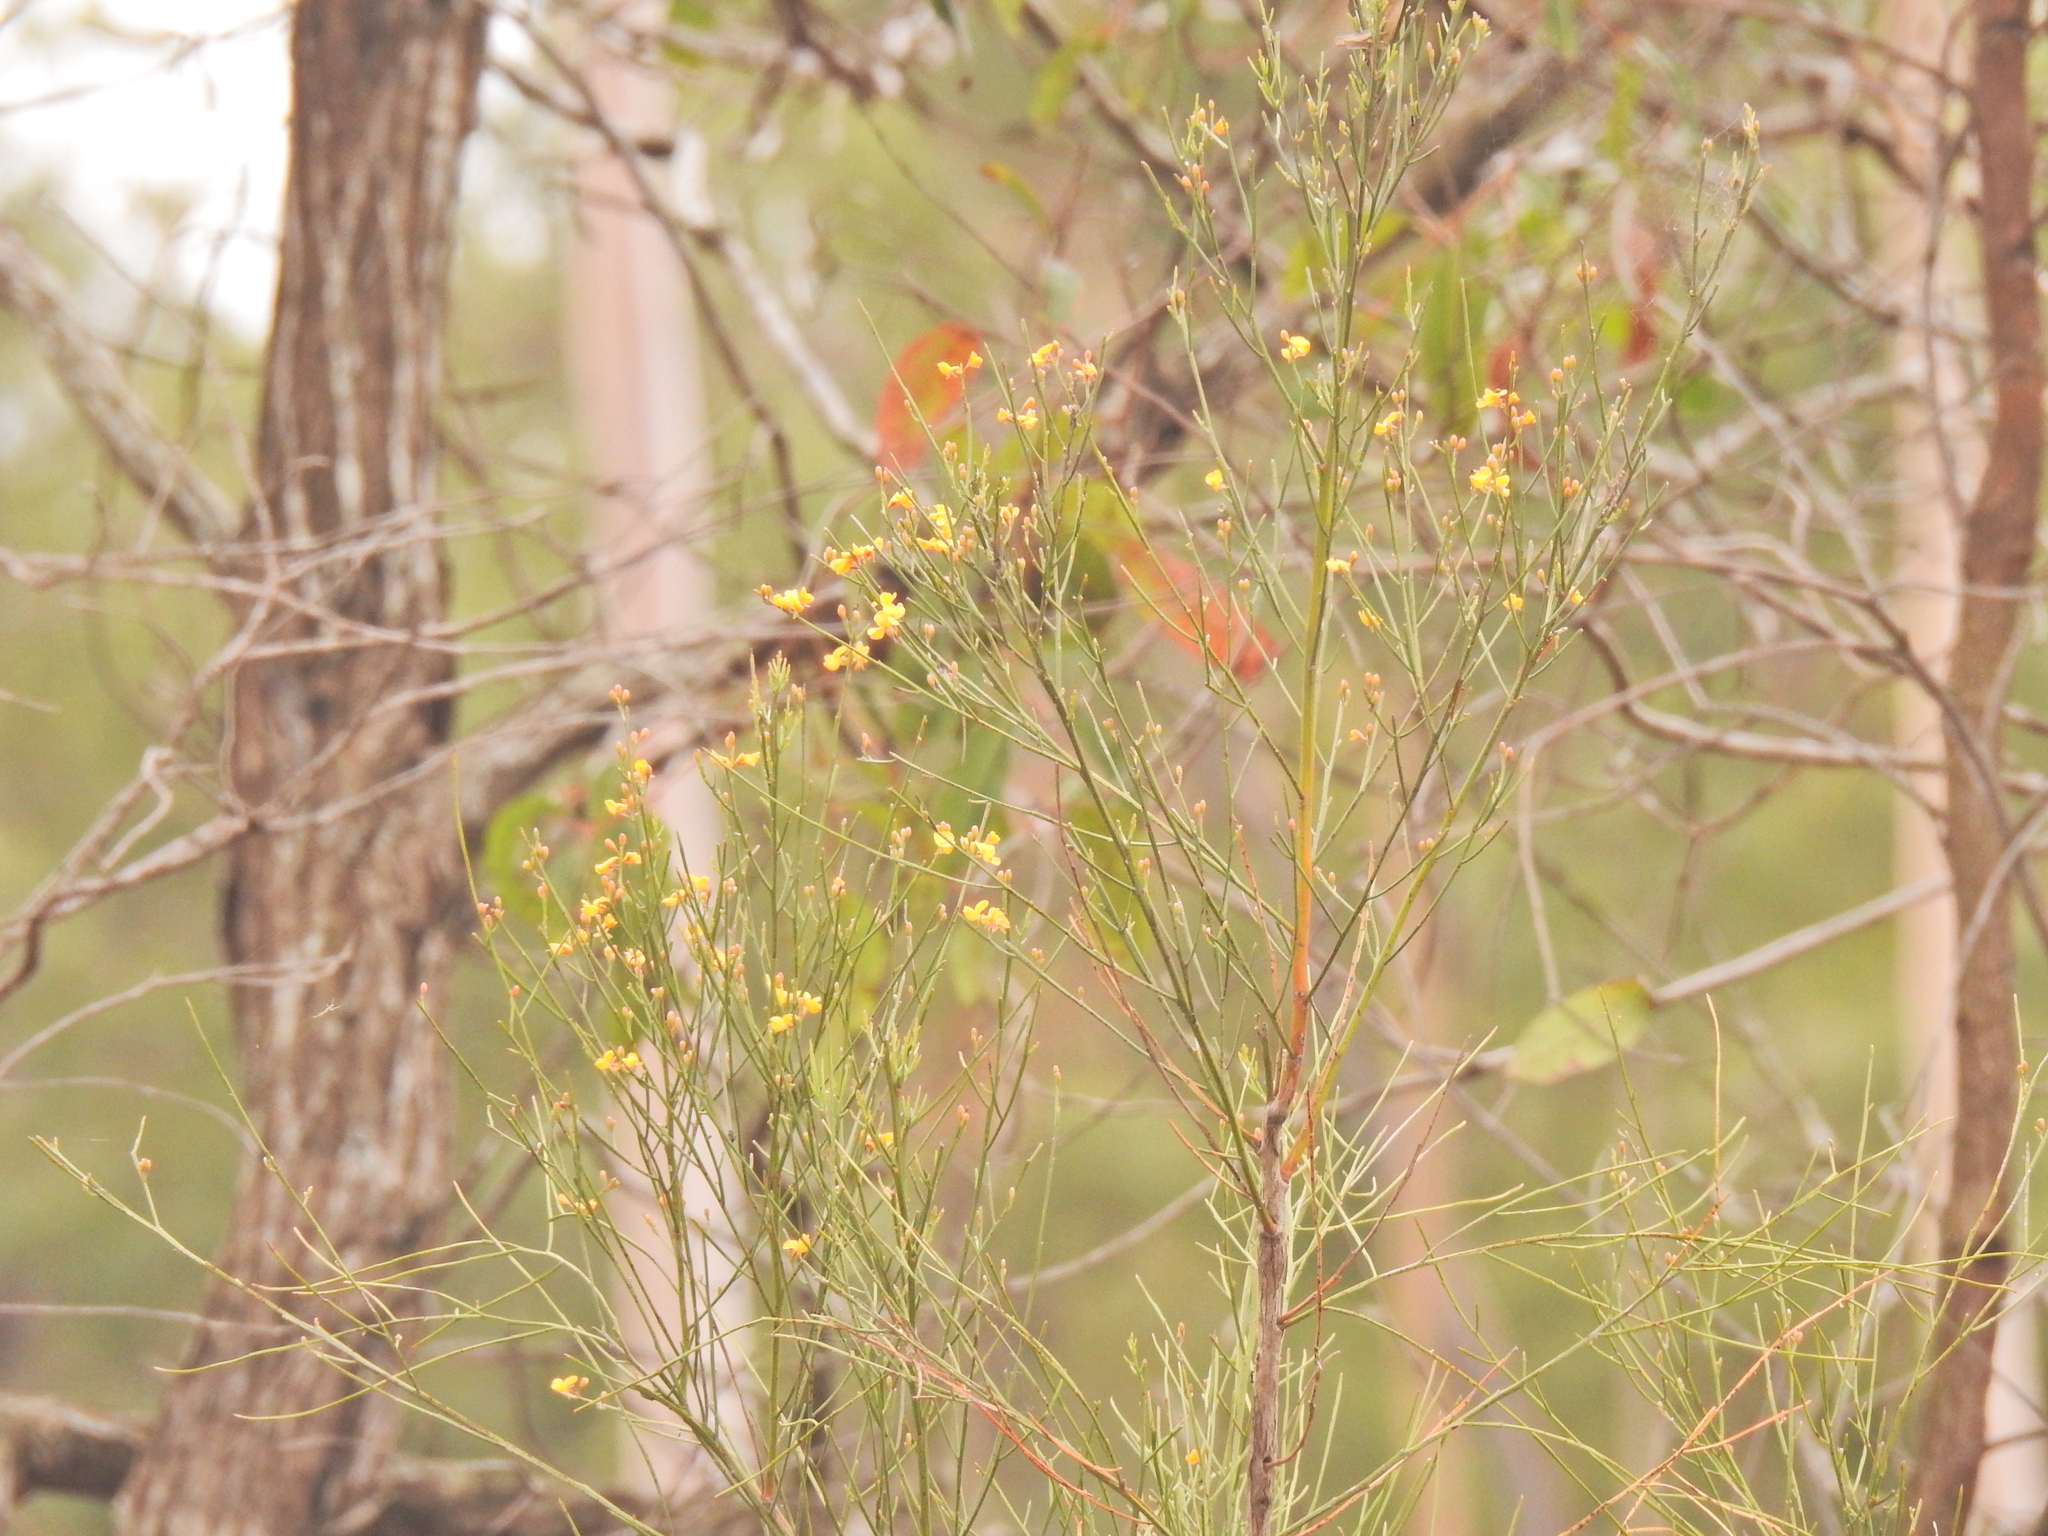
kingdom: Plantae
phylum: Tracheophyta
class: Magnoliopsida
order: Fabales
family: Fabaceae
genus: Jacksonia
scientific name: Jacksonia scoparia
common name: Dogwood
